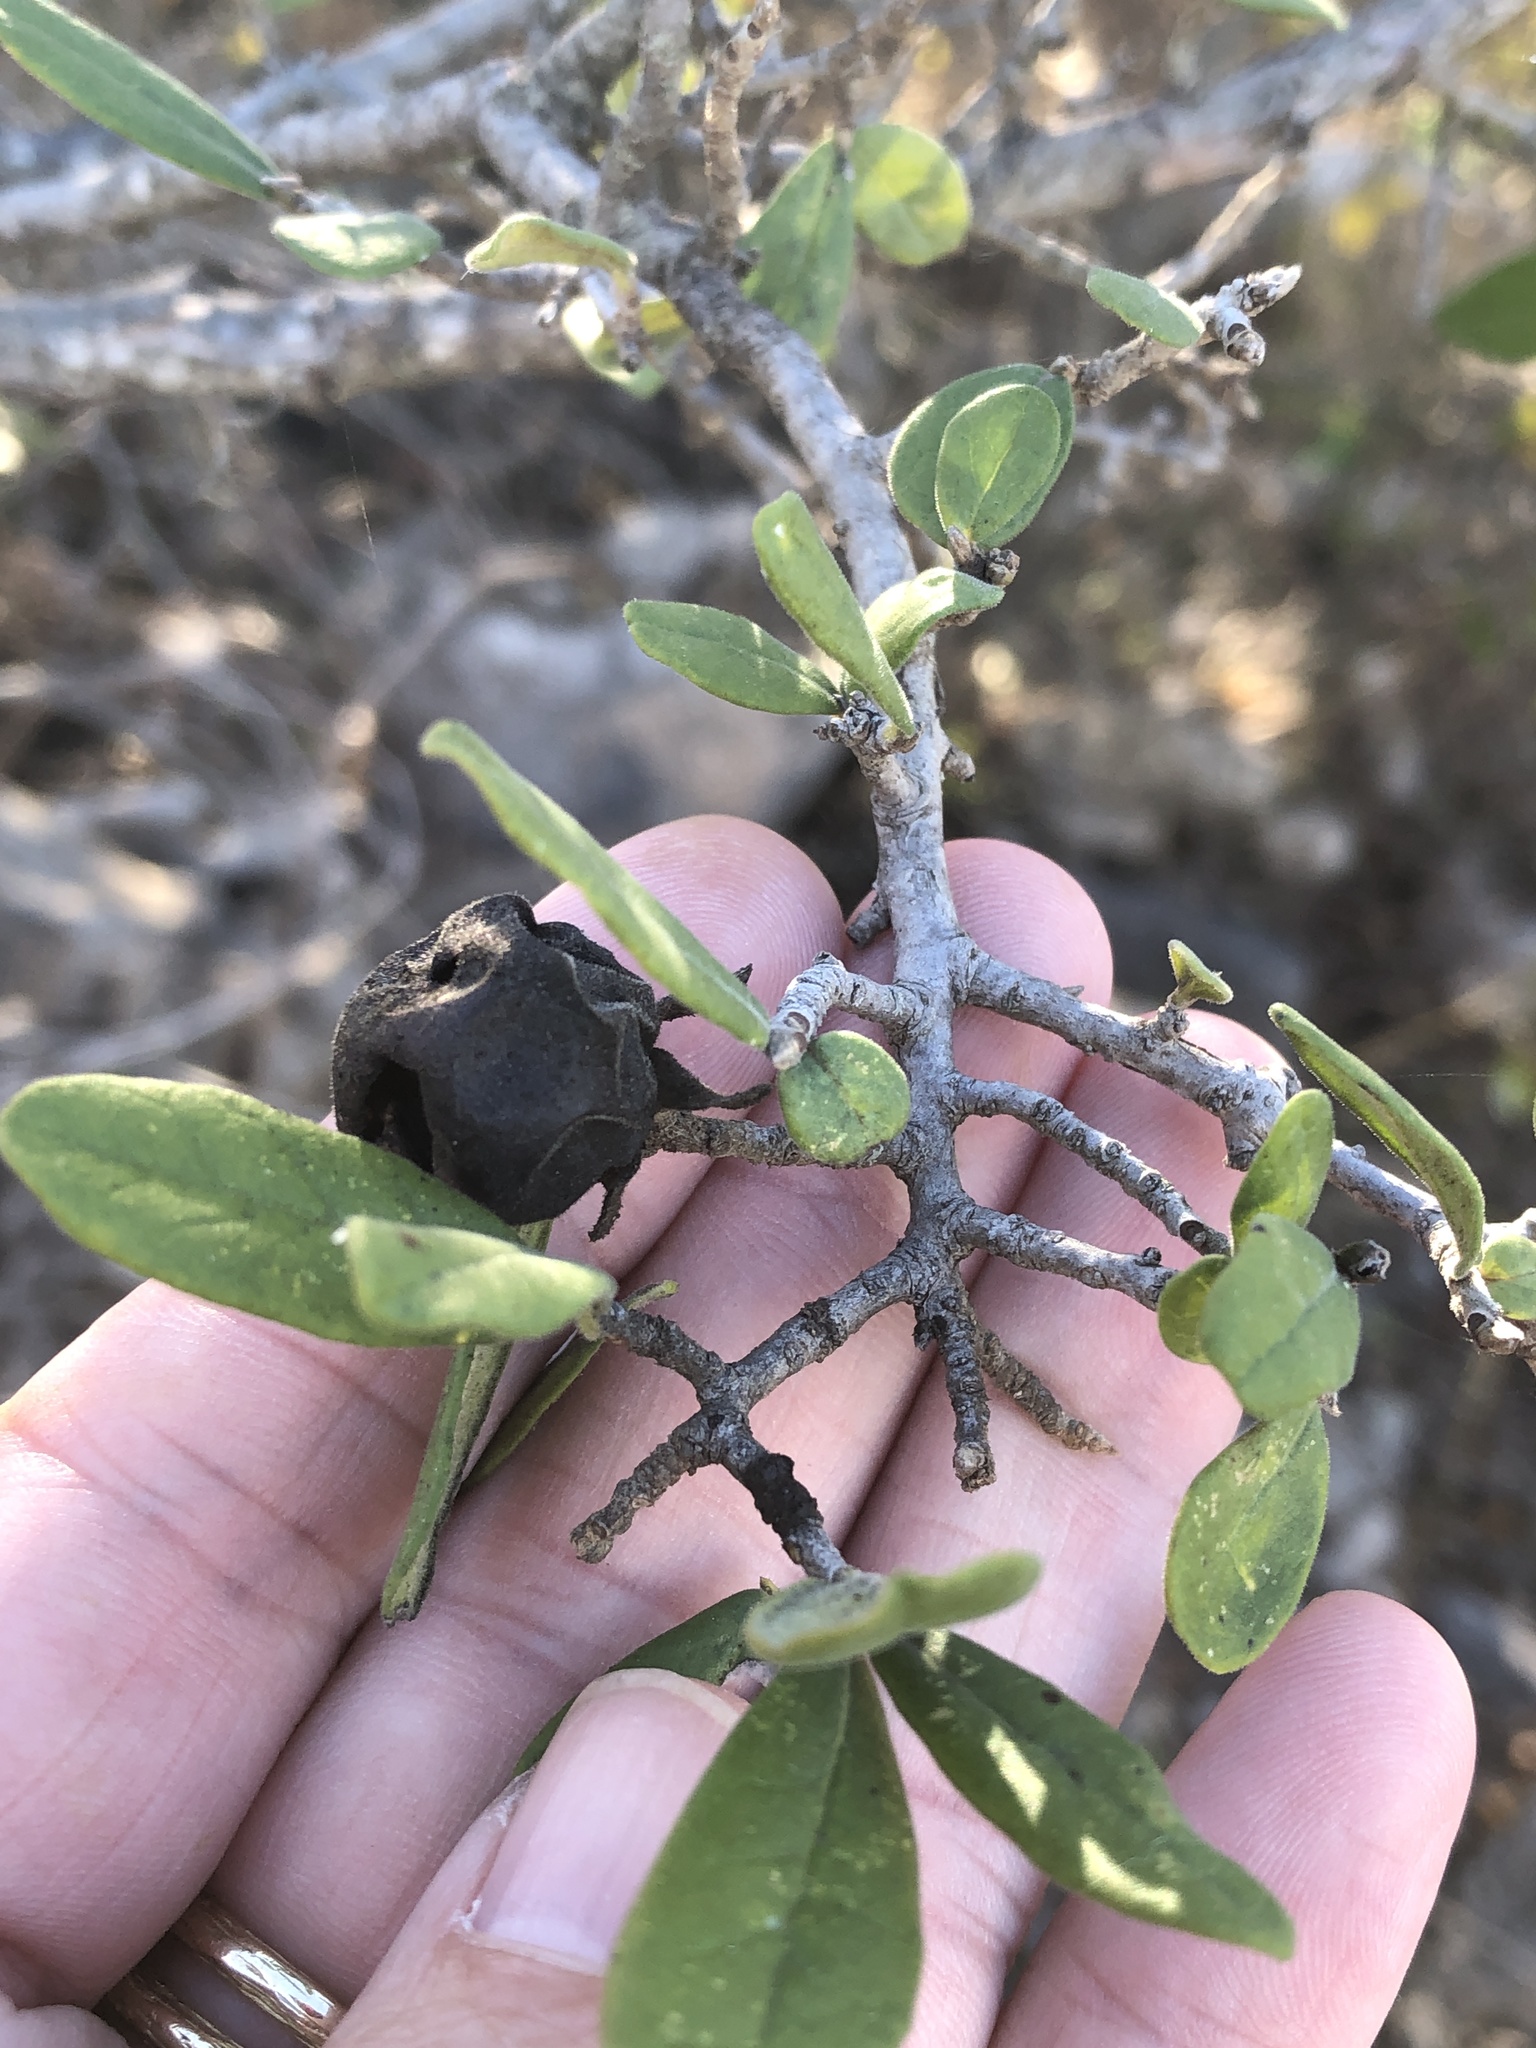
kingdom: Plantae
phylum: Tracheophyta
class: Magnoliopsida
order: Ericales
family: Ebenaceae
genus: Diospyros
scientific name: Diospyros texana
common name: Texas persimmon
